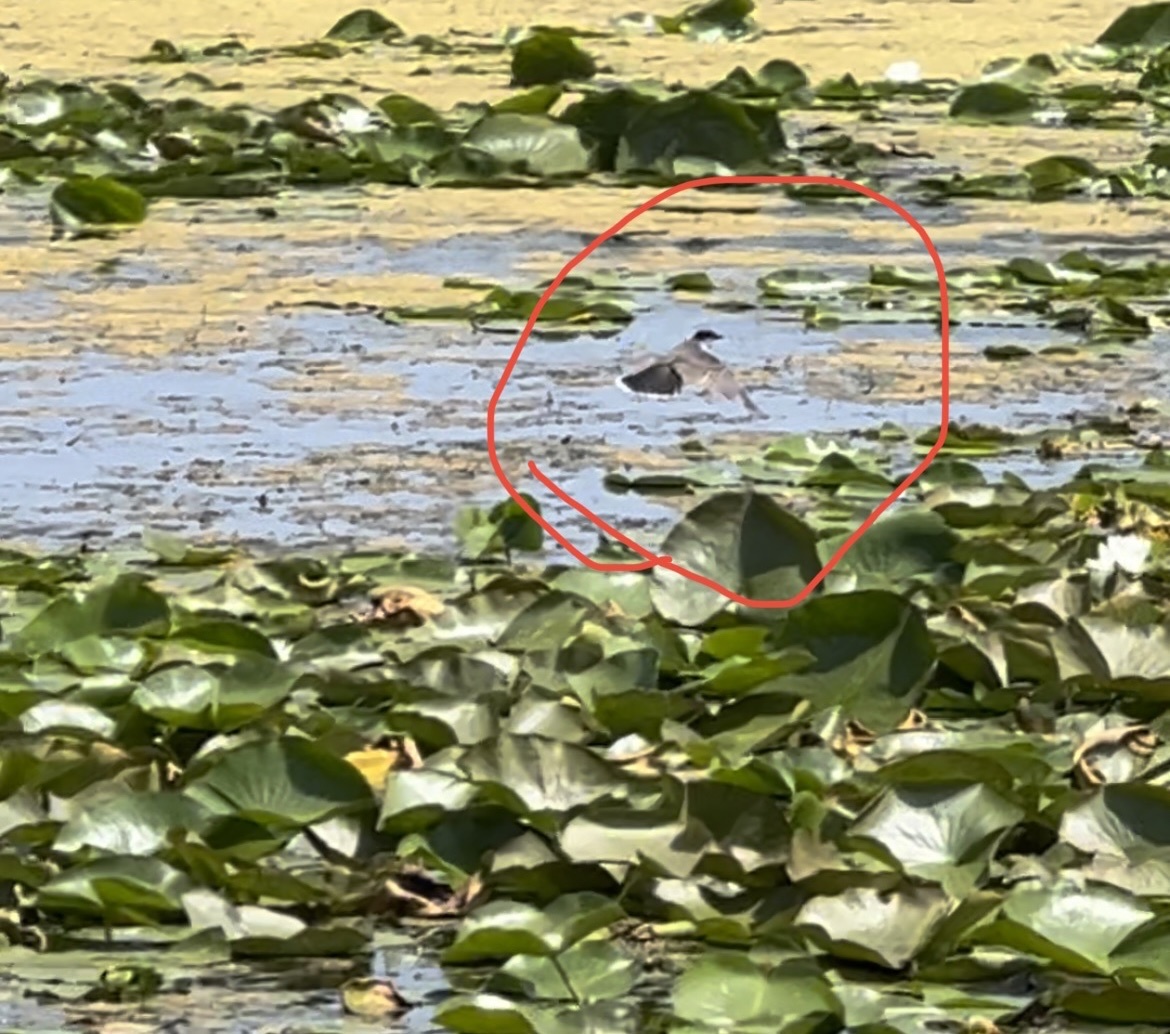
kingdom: Animalia
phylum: Chordata
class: Aves
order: Passeriformes
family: Tyrannidae
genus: Tyrannus
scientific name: Tyrannus tyrannus
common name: Eastern kingbird
